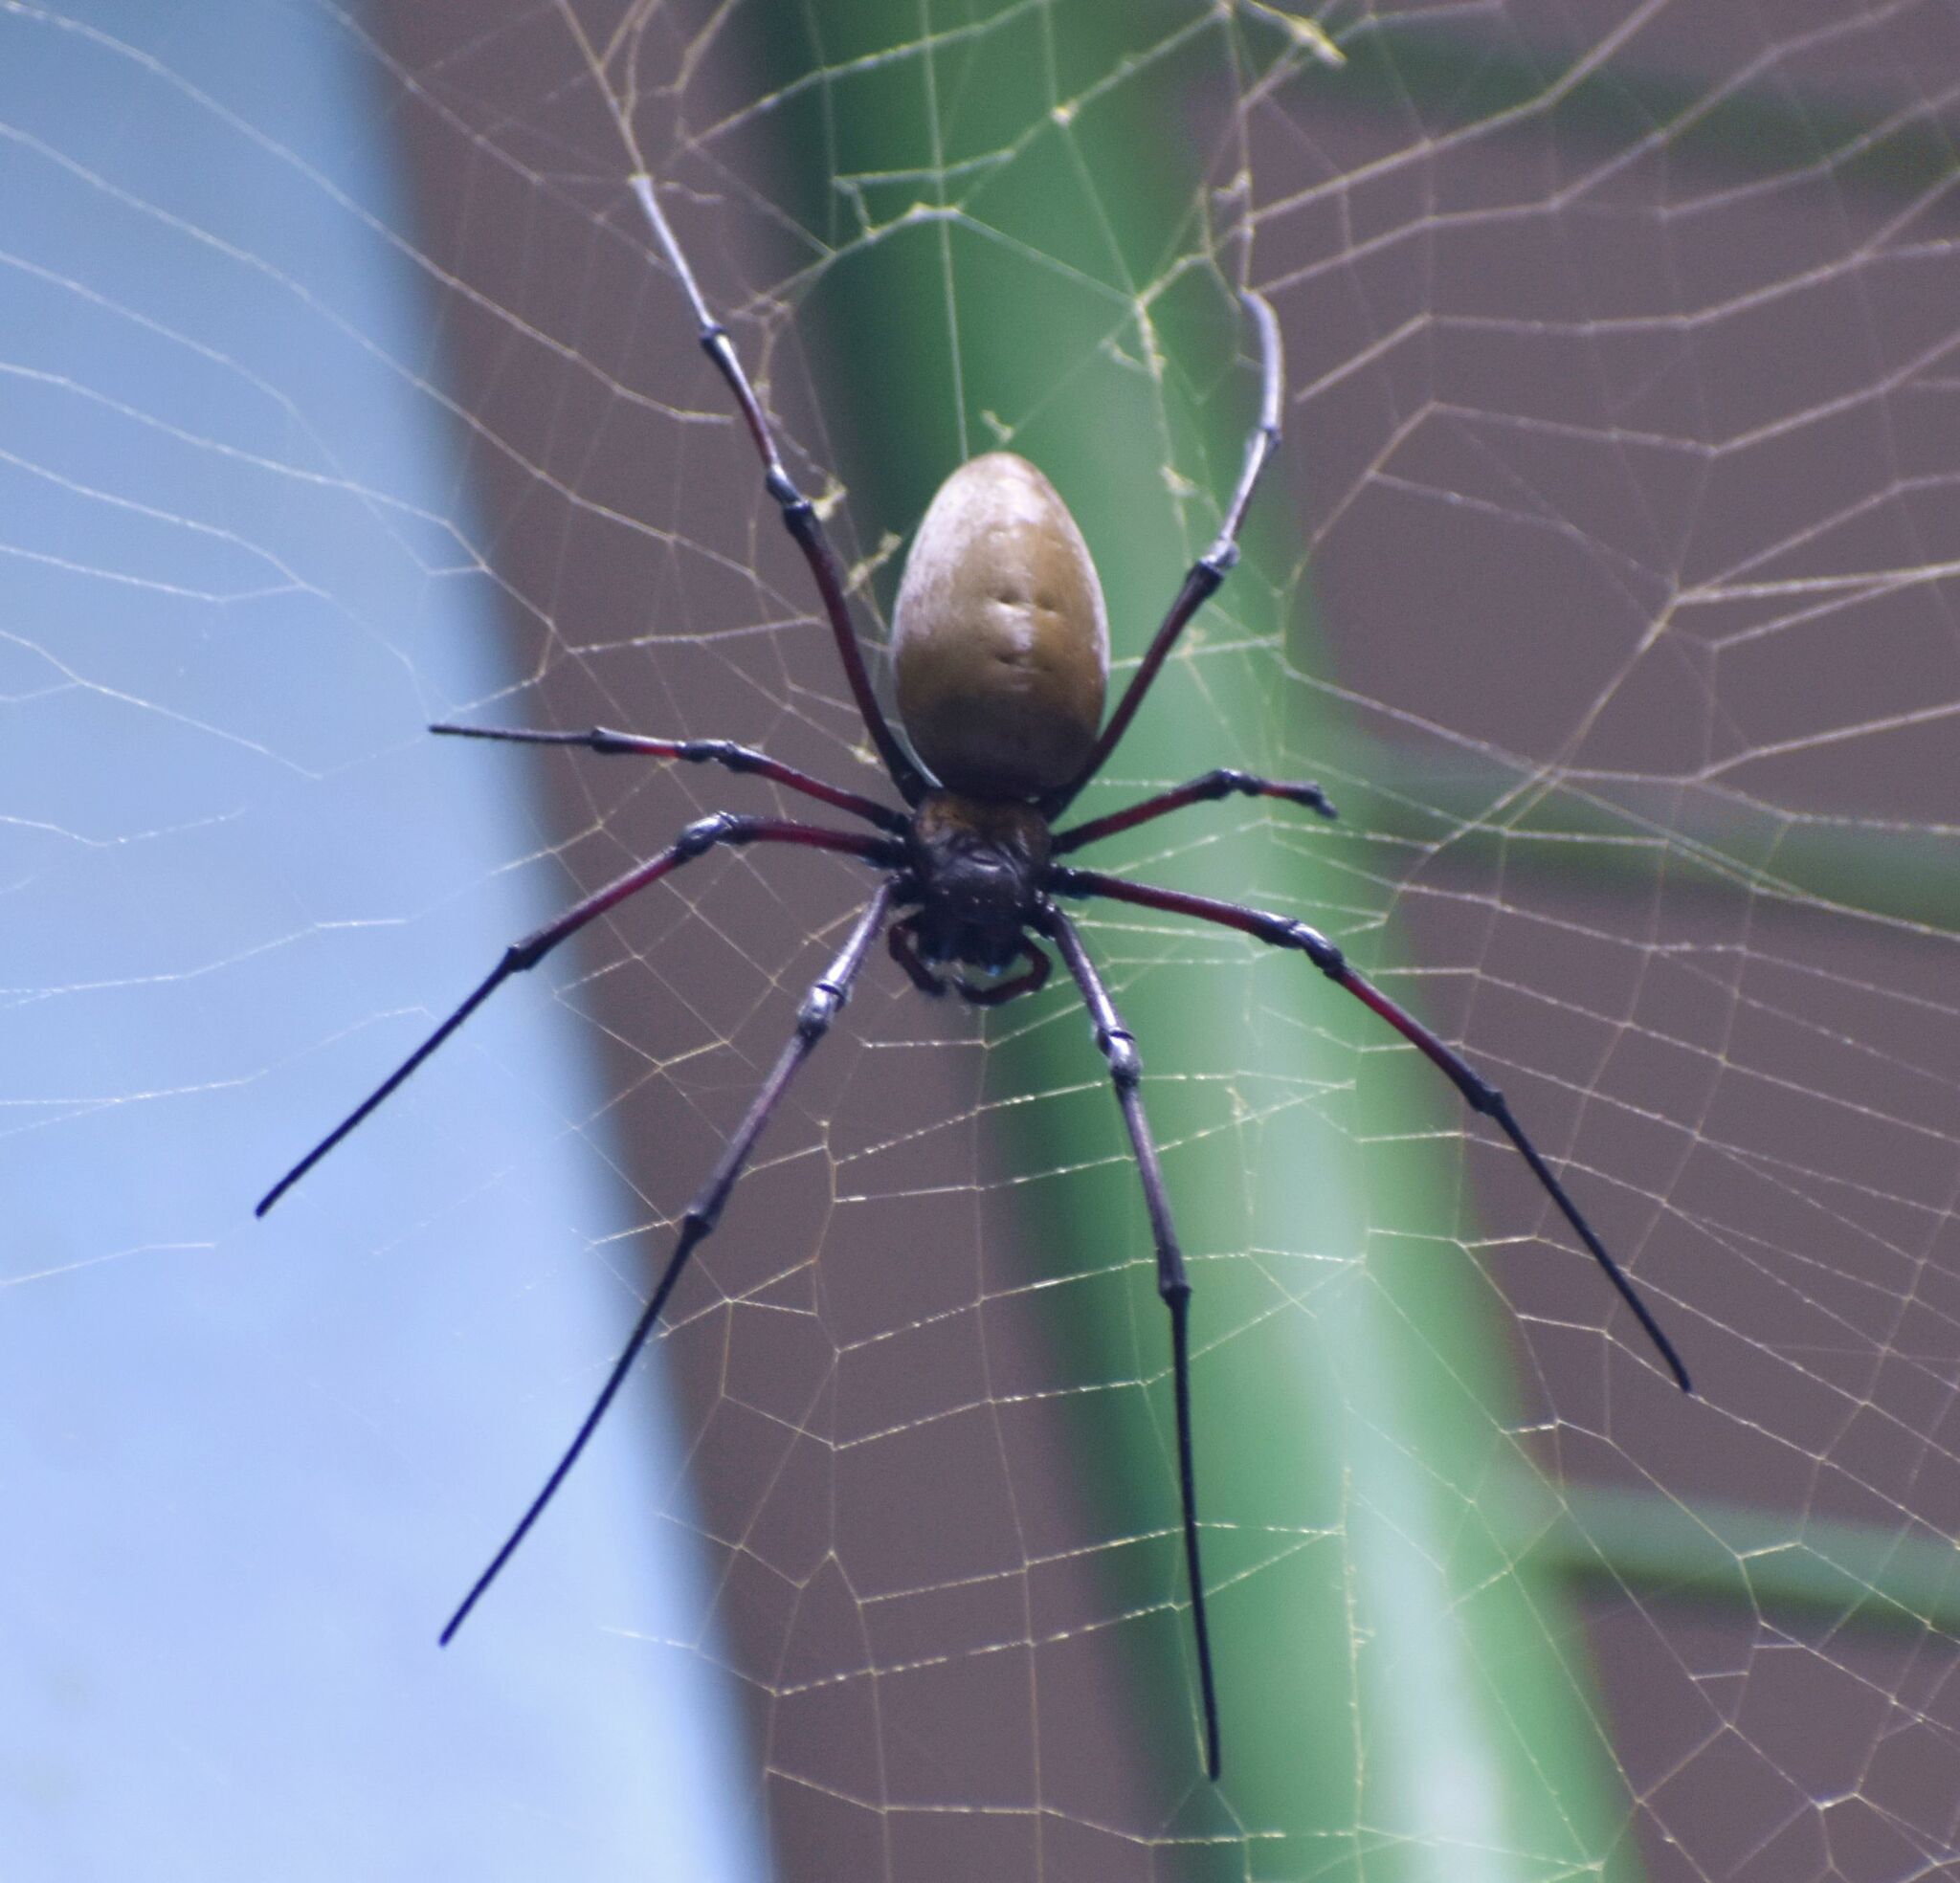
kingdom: Animalia
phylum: Arthropoda
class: Arachnida
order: Araneae
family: Araneidae
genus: Nephila
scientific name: Nephila pilipes
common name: Giant golden orb weaver
